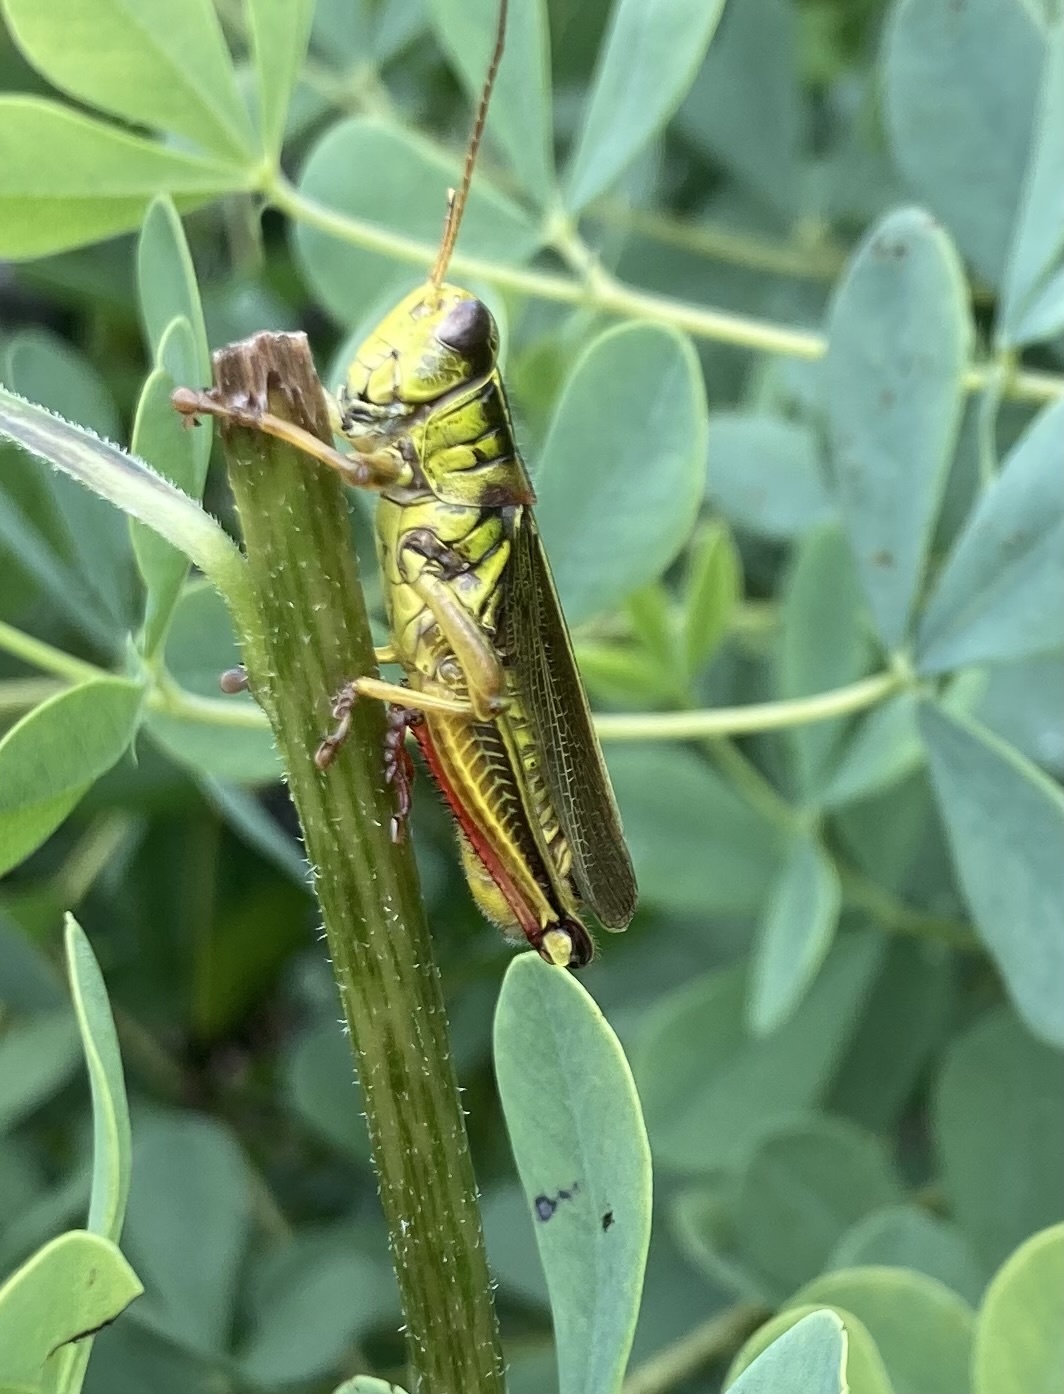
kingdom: Animalia
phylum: Arthropoda
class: Insecta
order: Orthoptera
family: Acrididae
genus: Melanoplus
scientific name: Melanoplus bivittatus
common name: Two-striped grasshopper
